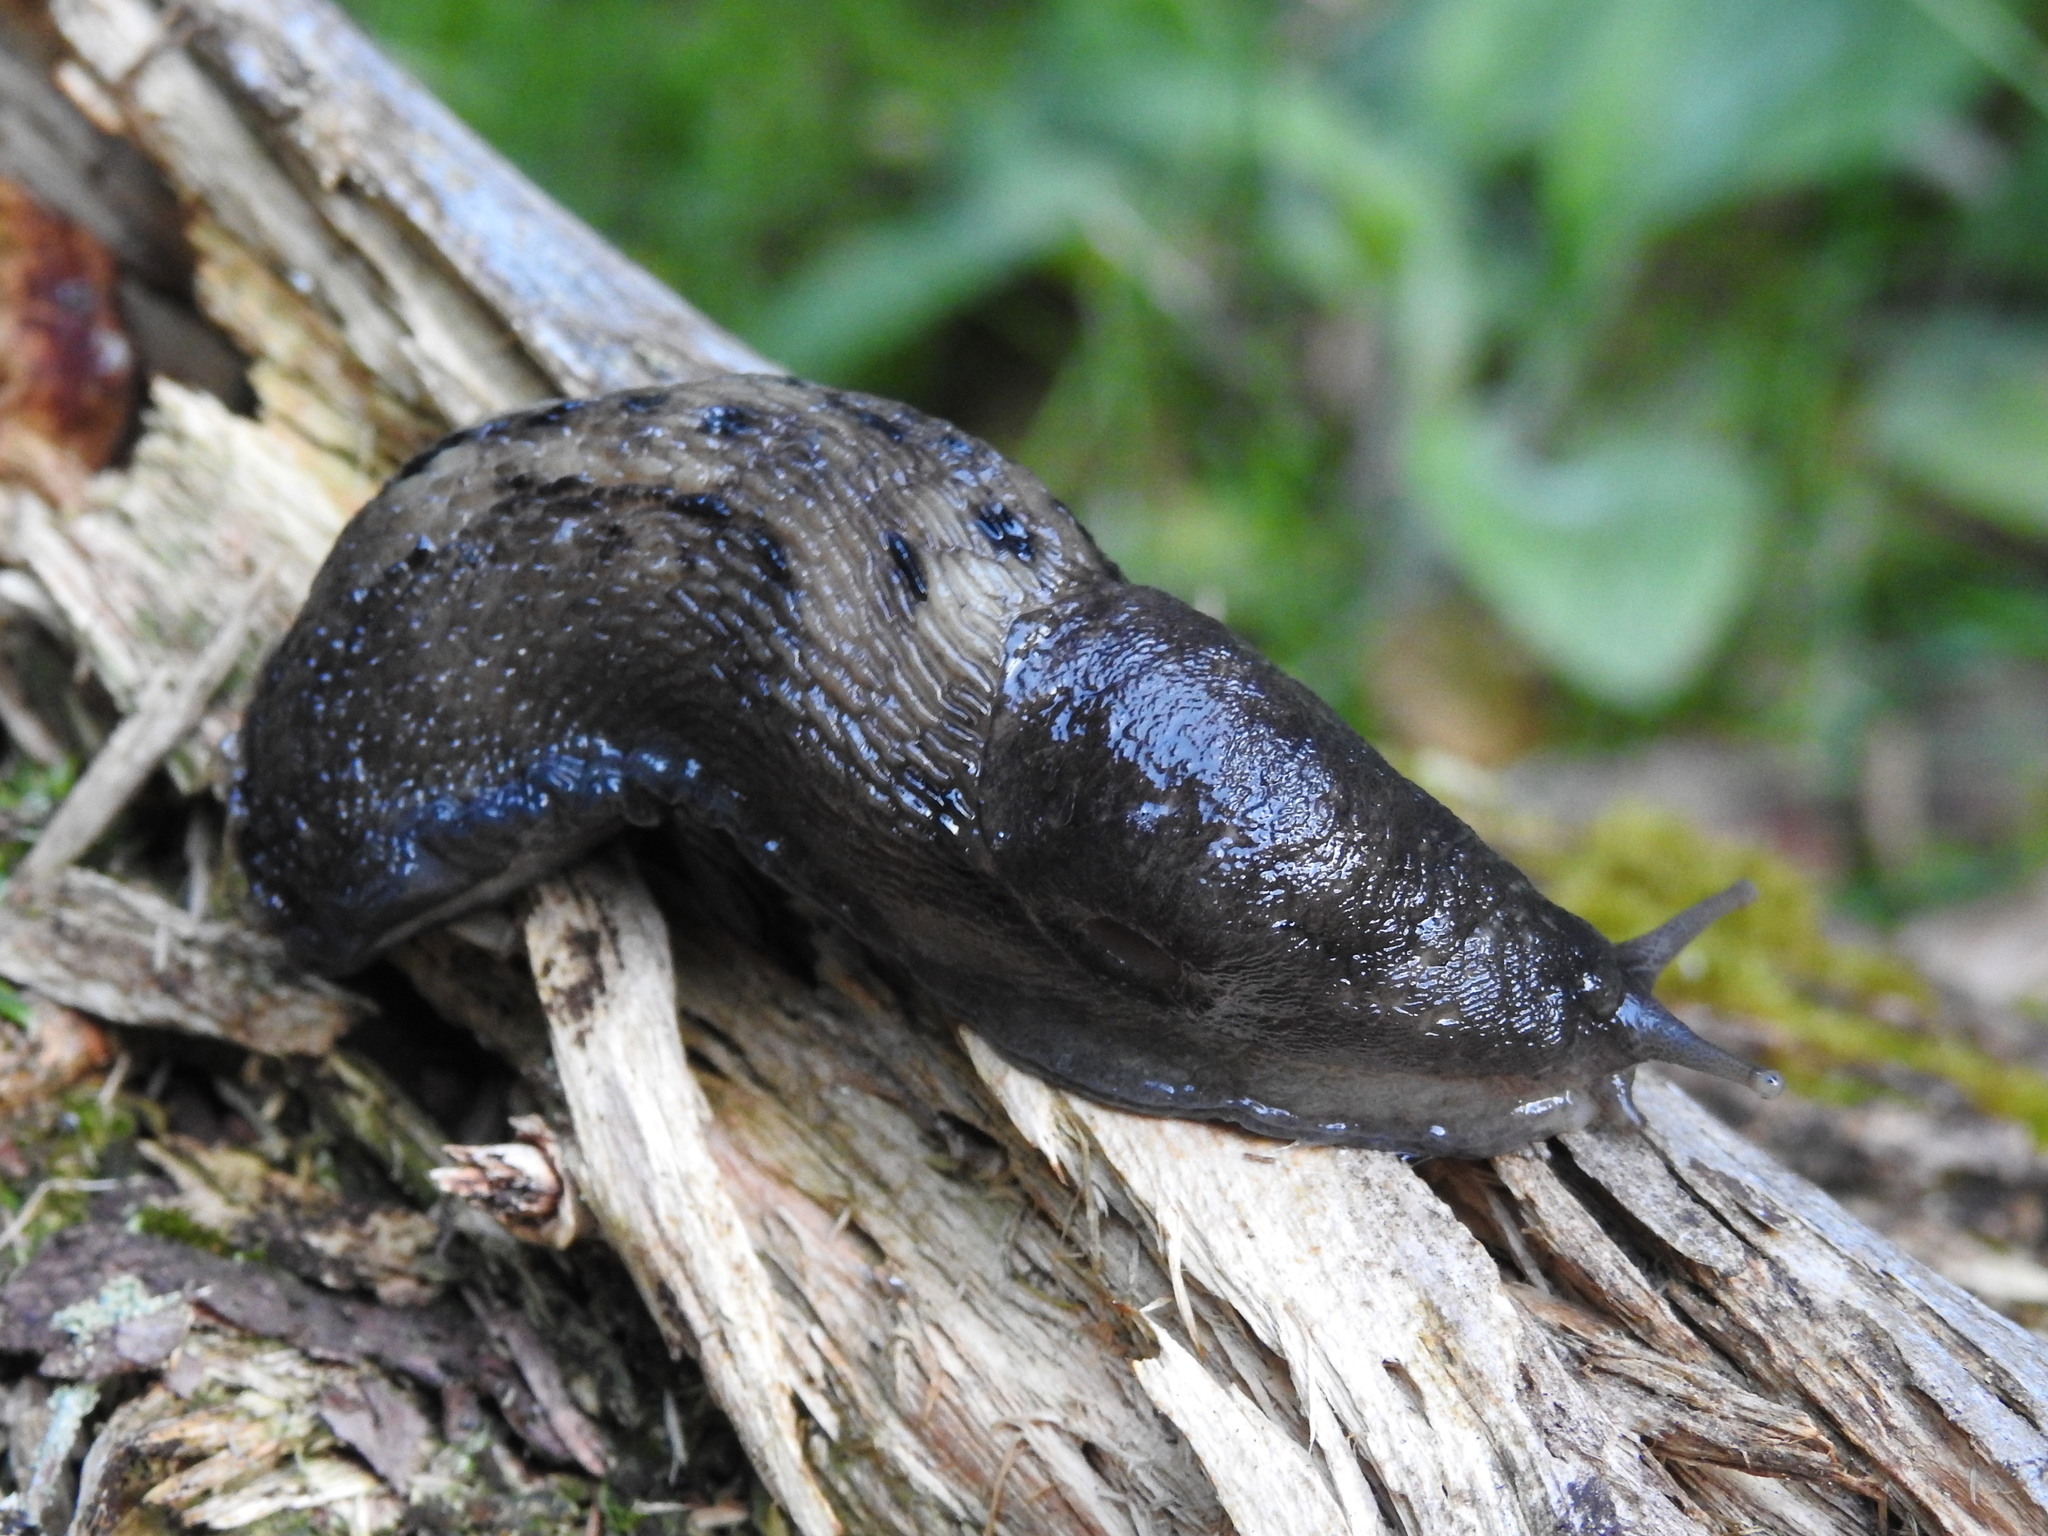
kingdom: Animalia
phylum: Mollusca
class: Gastropoda
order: Stylommatophora
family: Limacidae
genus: Limax
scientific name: Limax cinereoniger
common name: Ash-black slug
